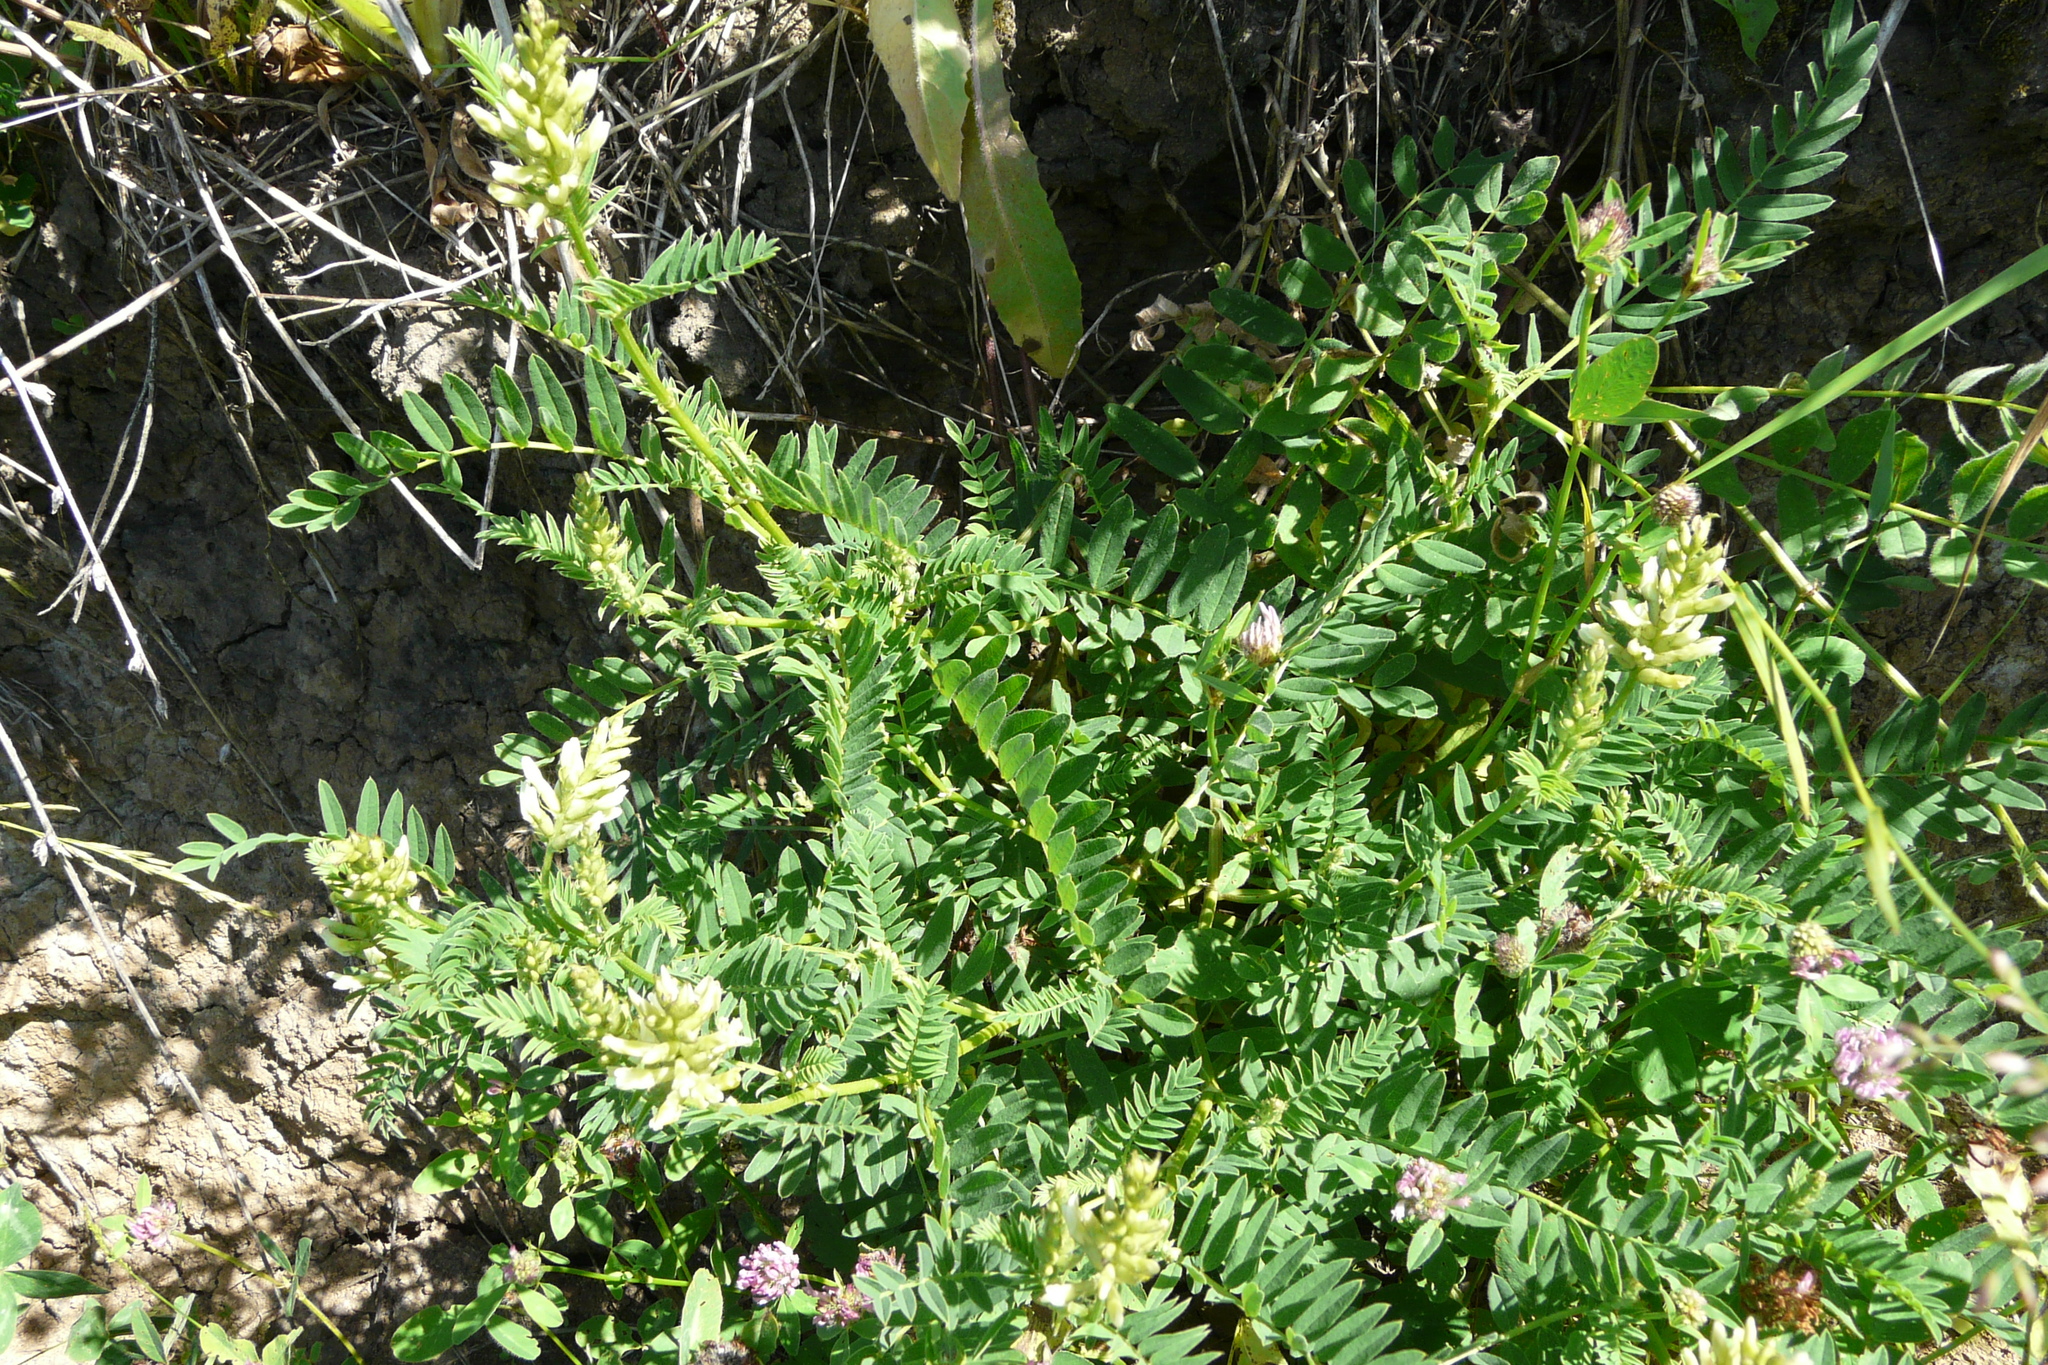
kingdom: Plantae
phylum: Tracheophyta
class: Magnoliopsida
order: Fabales
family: Fabaceae
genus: Astragalus
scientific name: Astragalus cicer
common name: Chick-pea milk-vetch
